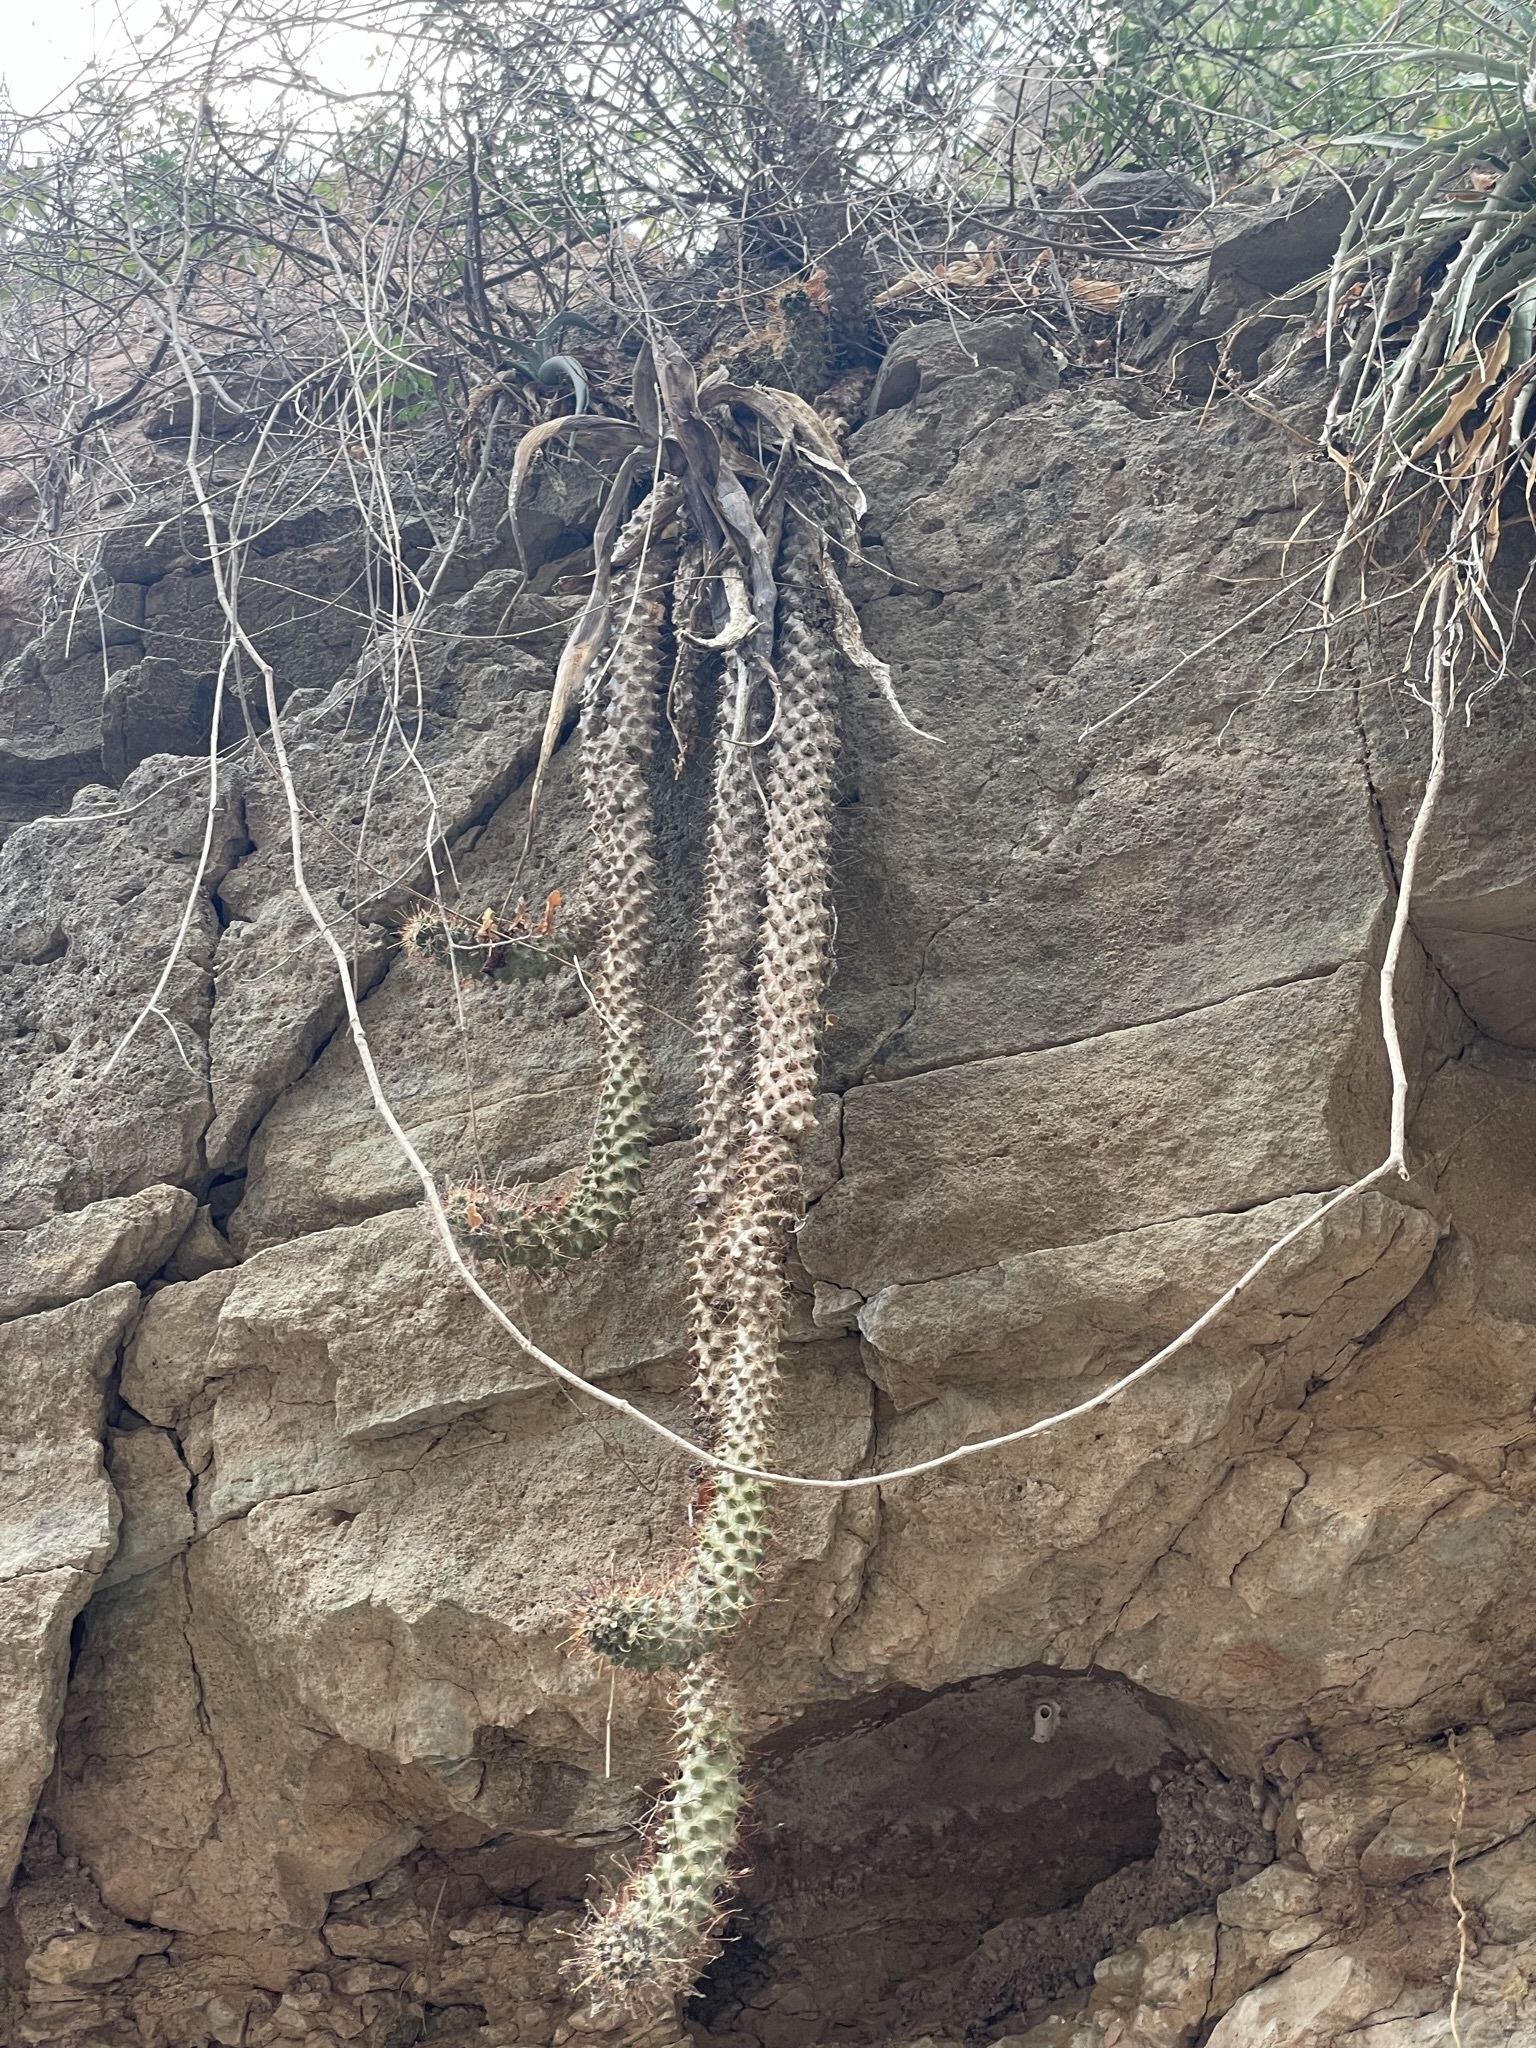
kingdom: Plantae
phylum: Tracheophyta
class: Magnoliopsida
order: Caryophyllales
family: Cactaceae
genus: Cochemiea
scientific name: Cochemiea poselgeri
